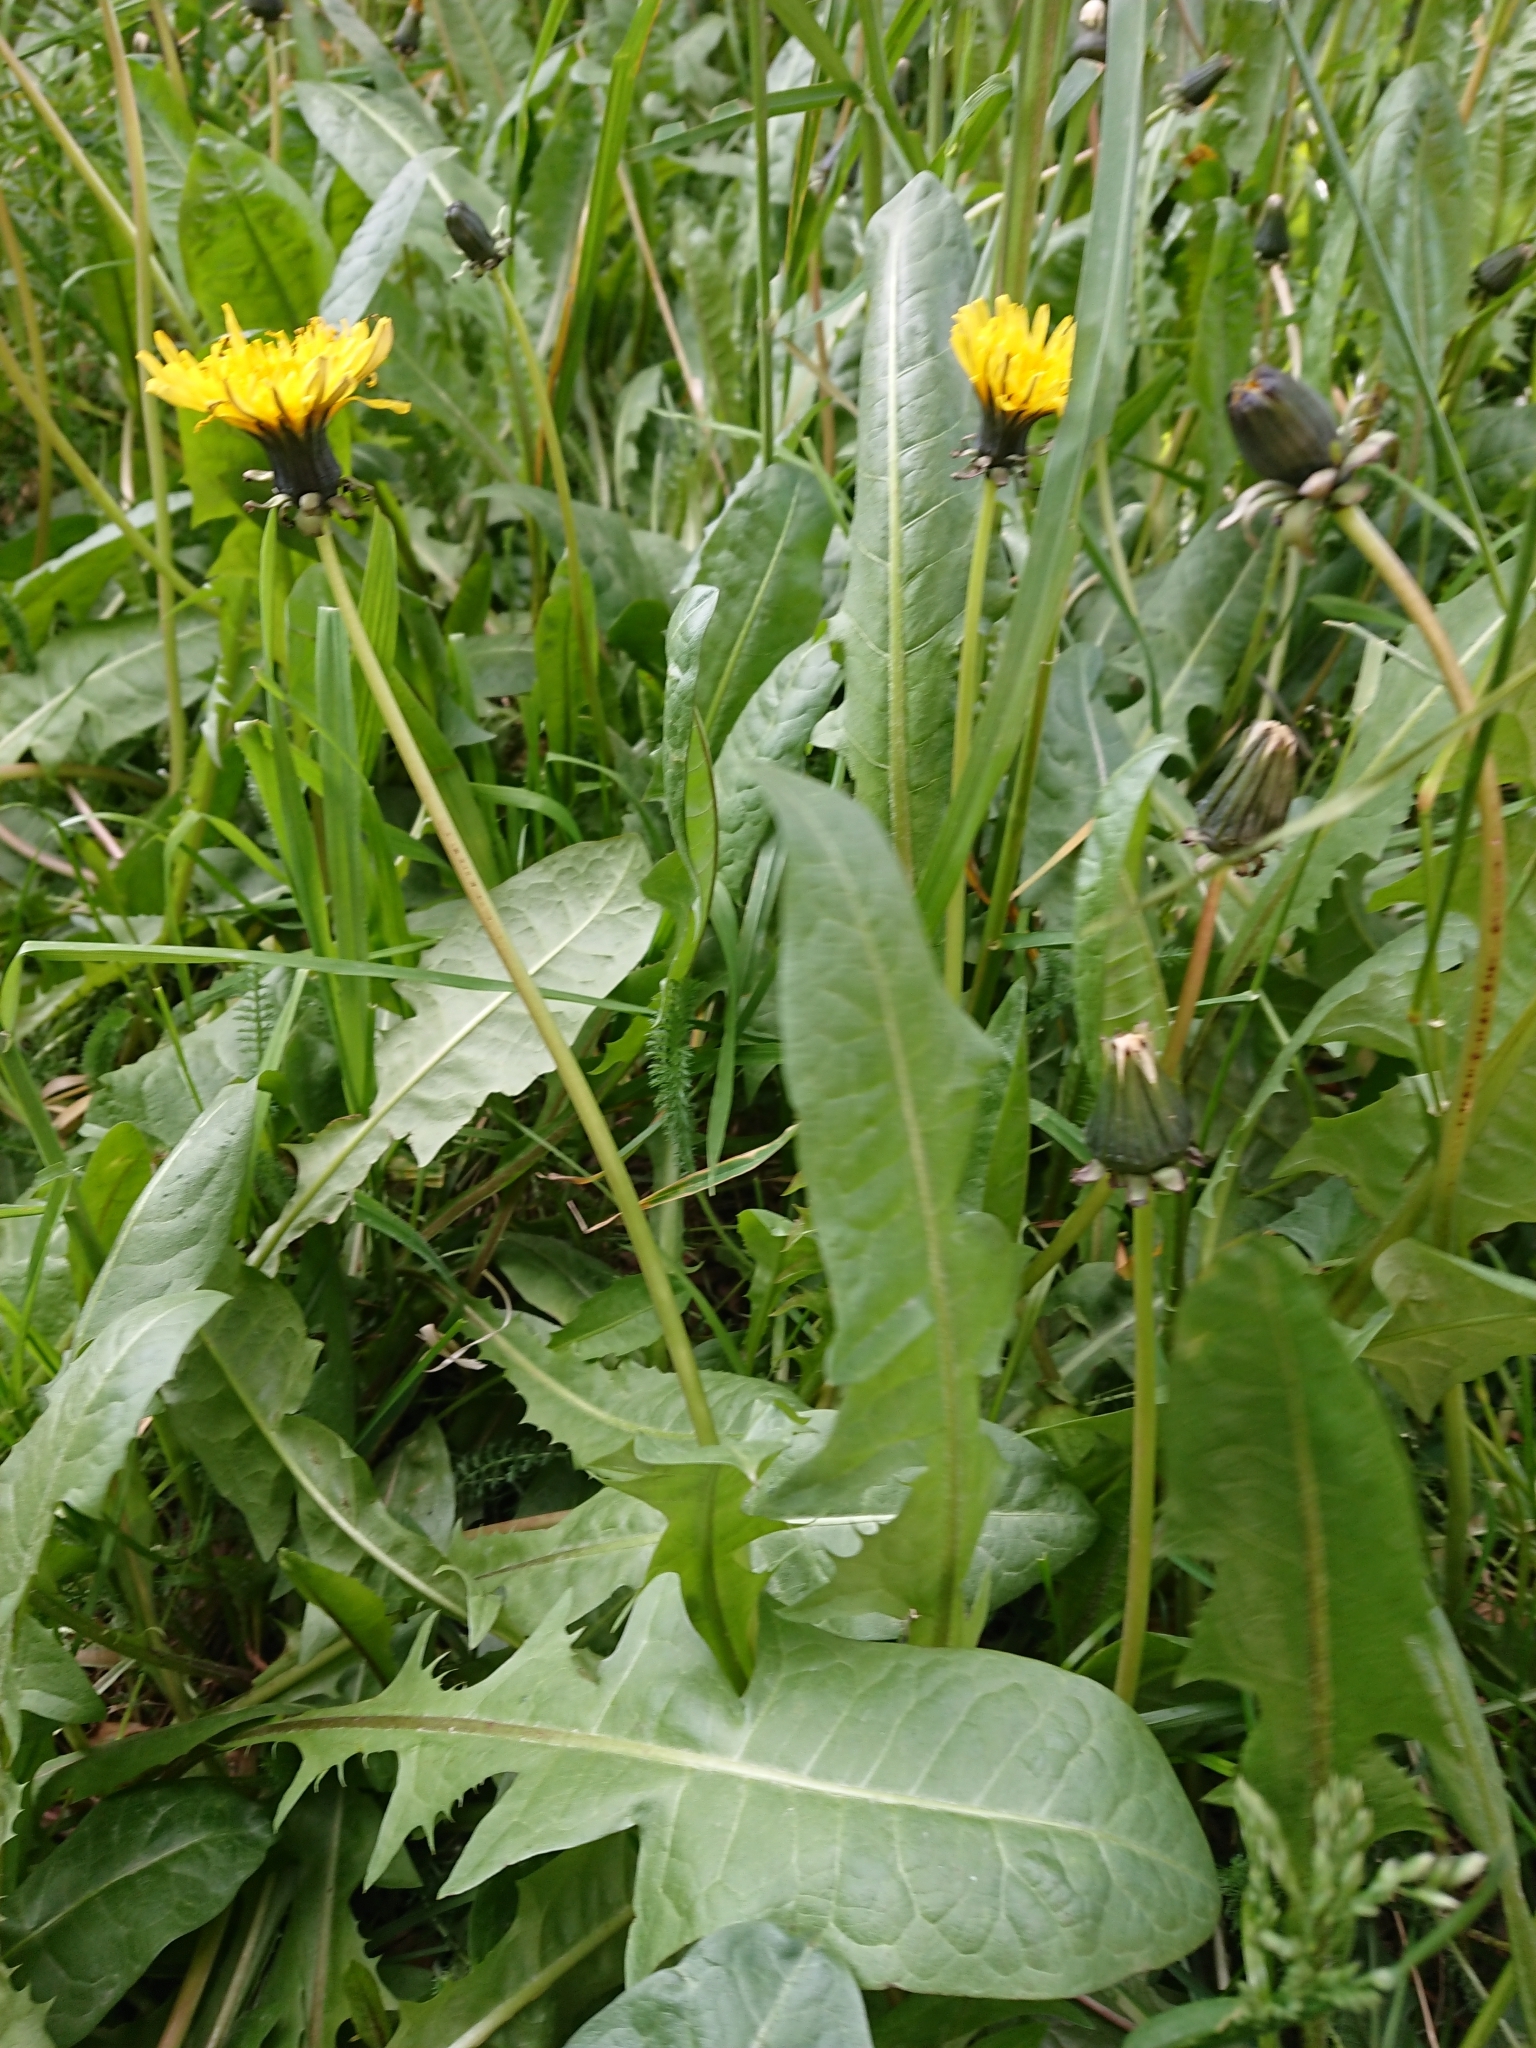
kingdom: Plantae
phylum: Tracheophyta
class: Magnoliopsida
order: Asterales
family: Asteraceae
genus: Taraxacum
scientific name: Taraxacum officinale
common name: Common dandelion
